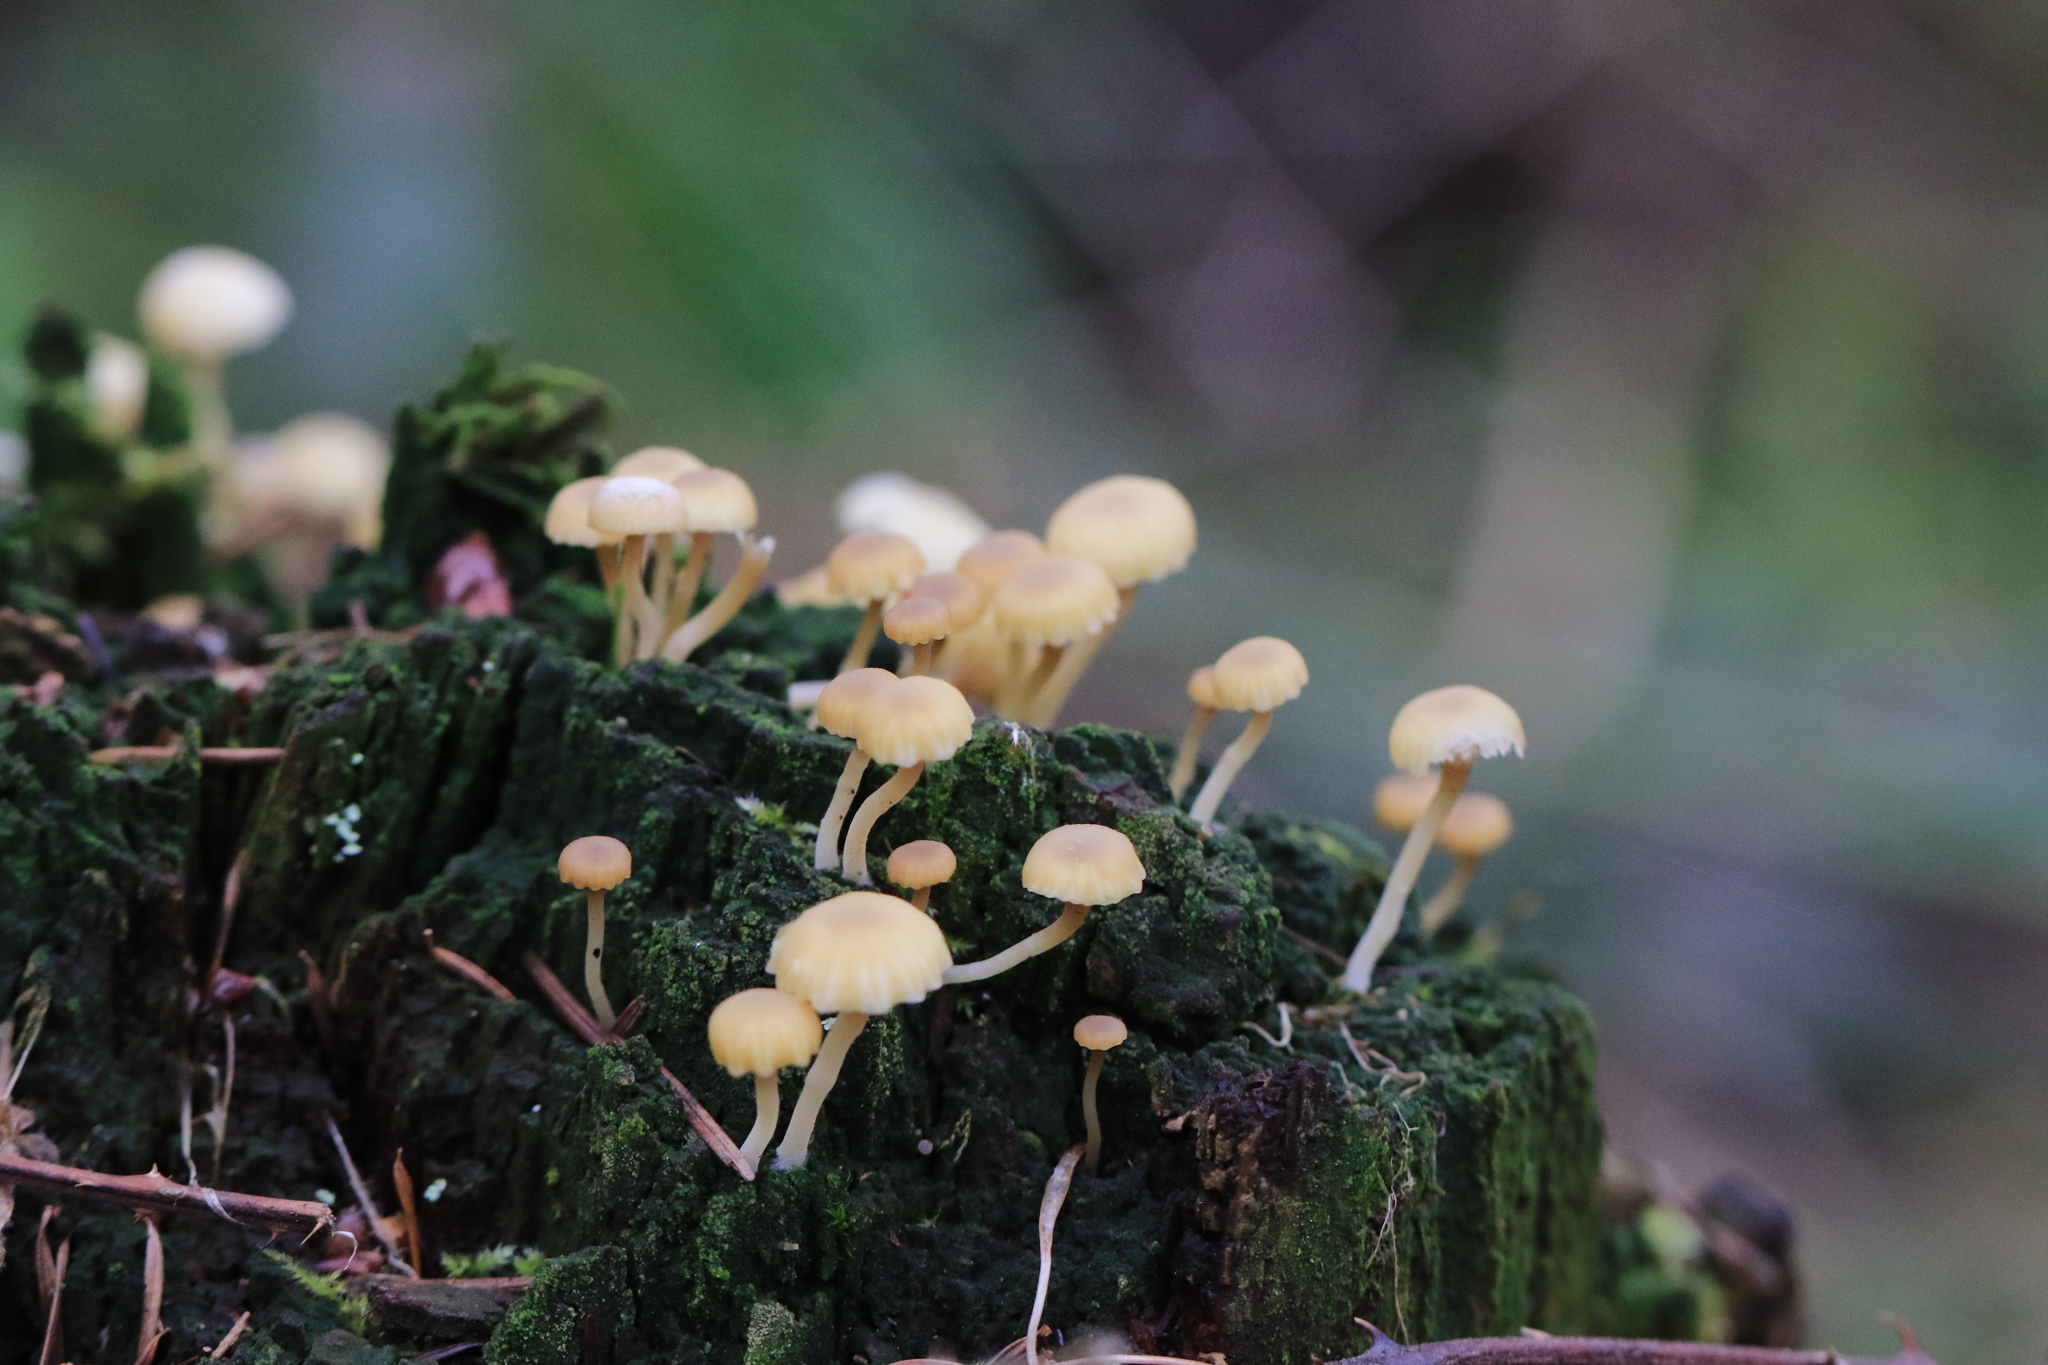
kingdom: Fungi
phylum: Basidiomycota
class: Agaricomycetes
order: Agaricales
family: Hygrophoraceae
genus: Lichenomphalia
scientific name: Lichenomphalia
